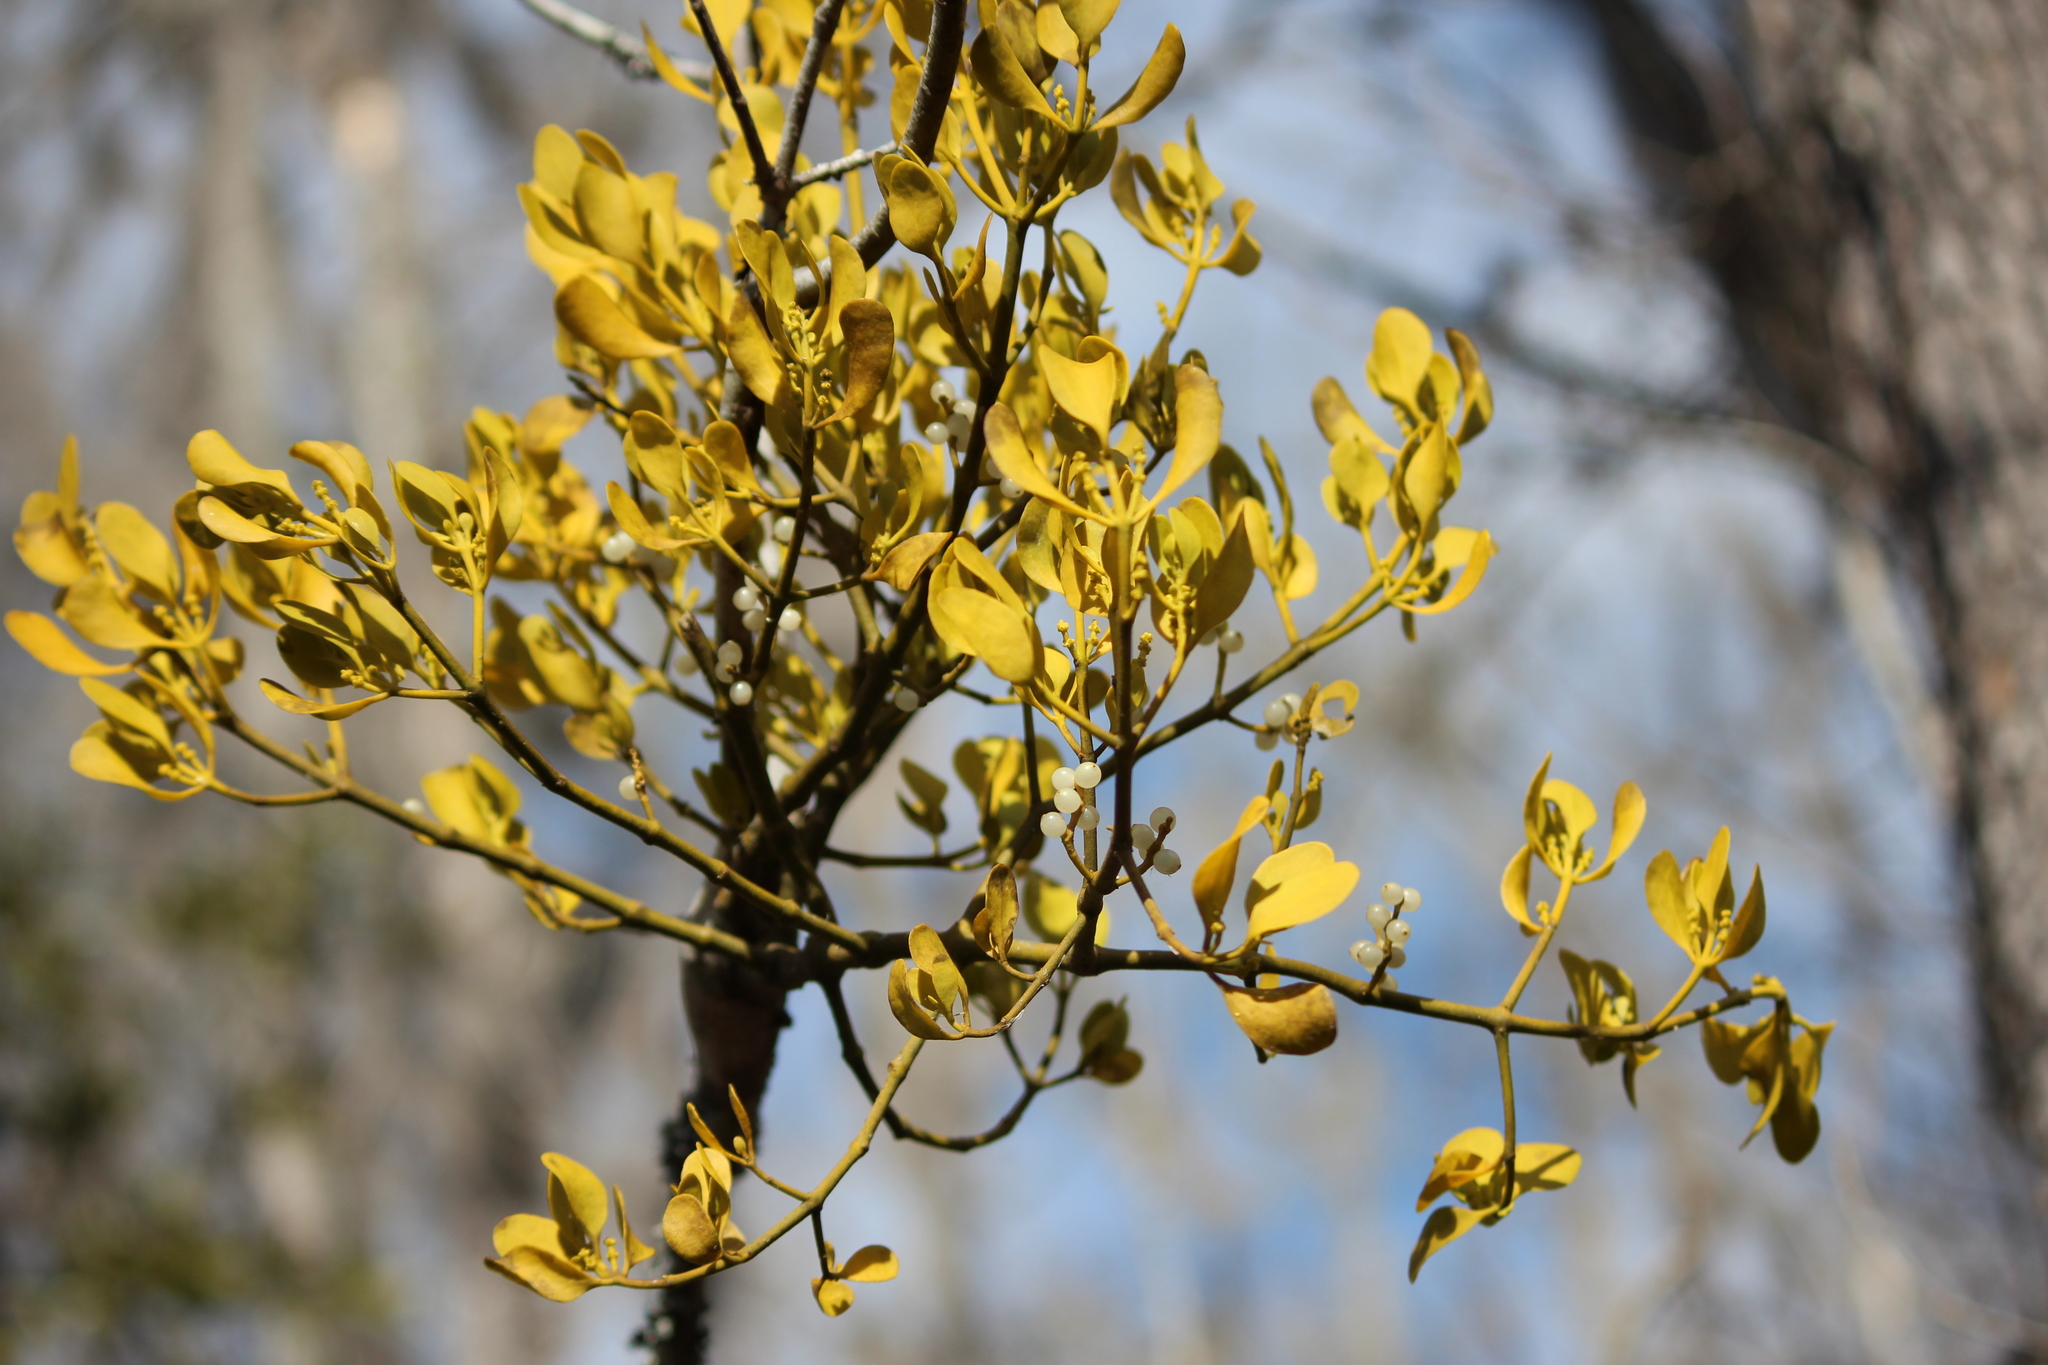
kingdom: Plantae
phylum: Tracheophyta
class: Magnoliopsida
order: Santalales
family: Viscaceae
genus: Phoradendron
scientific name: Phoradendron leucarpum
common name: Pacific mistletoe
